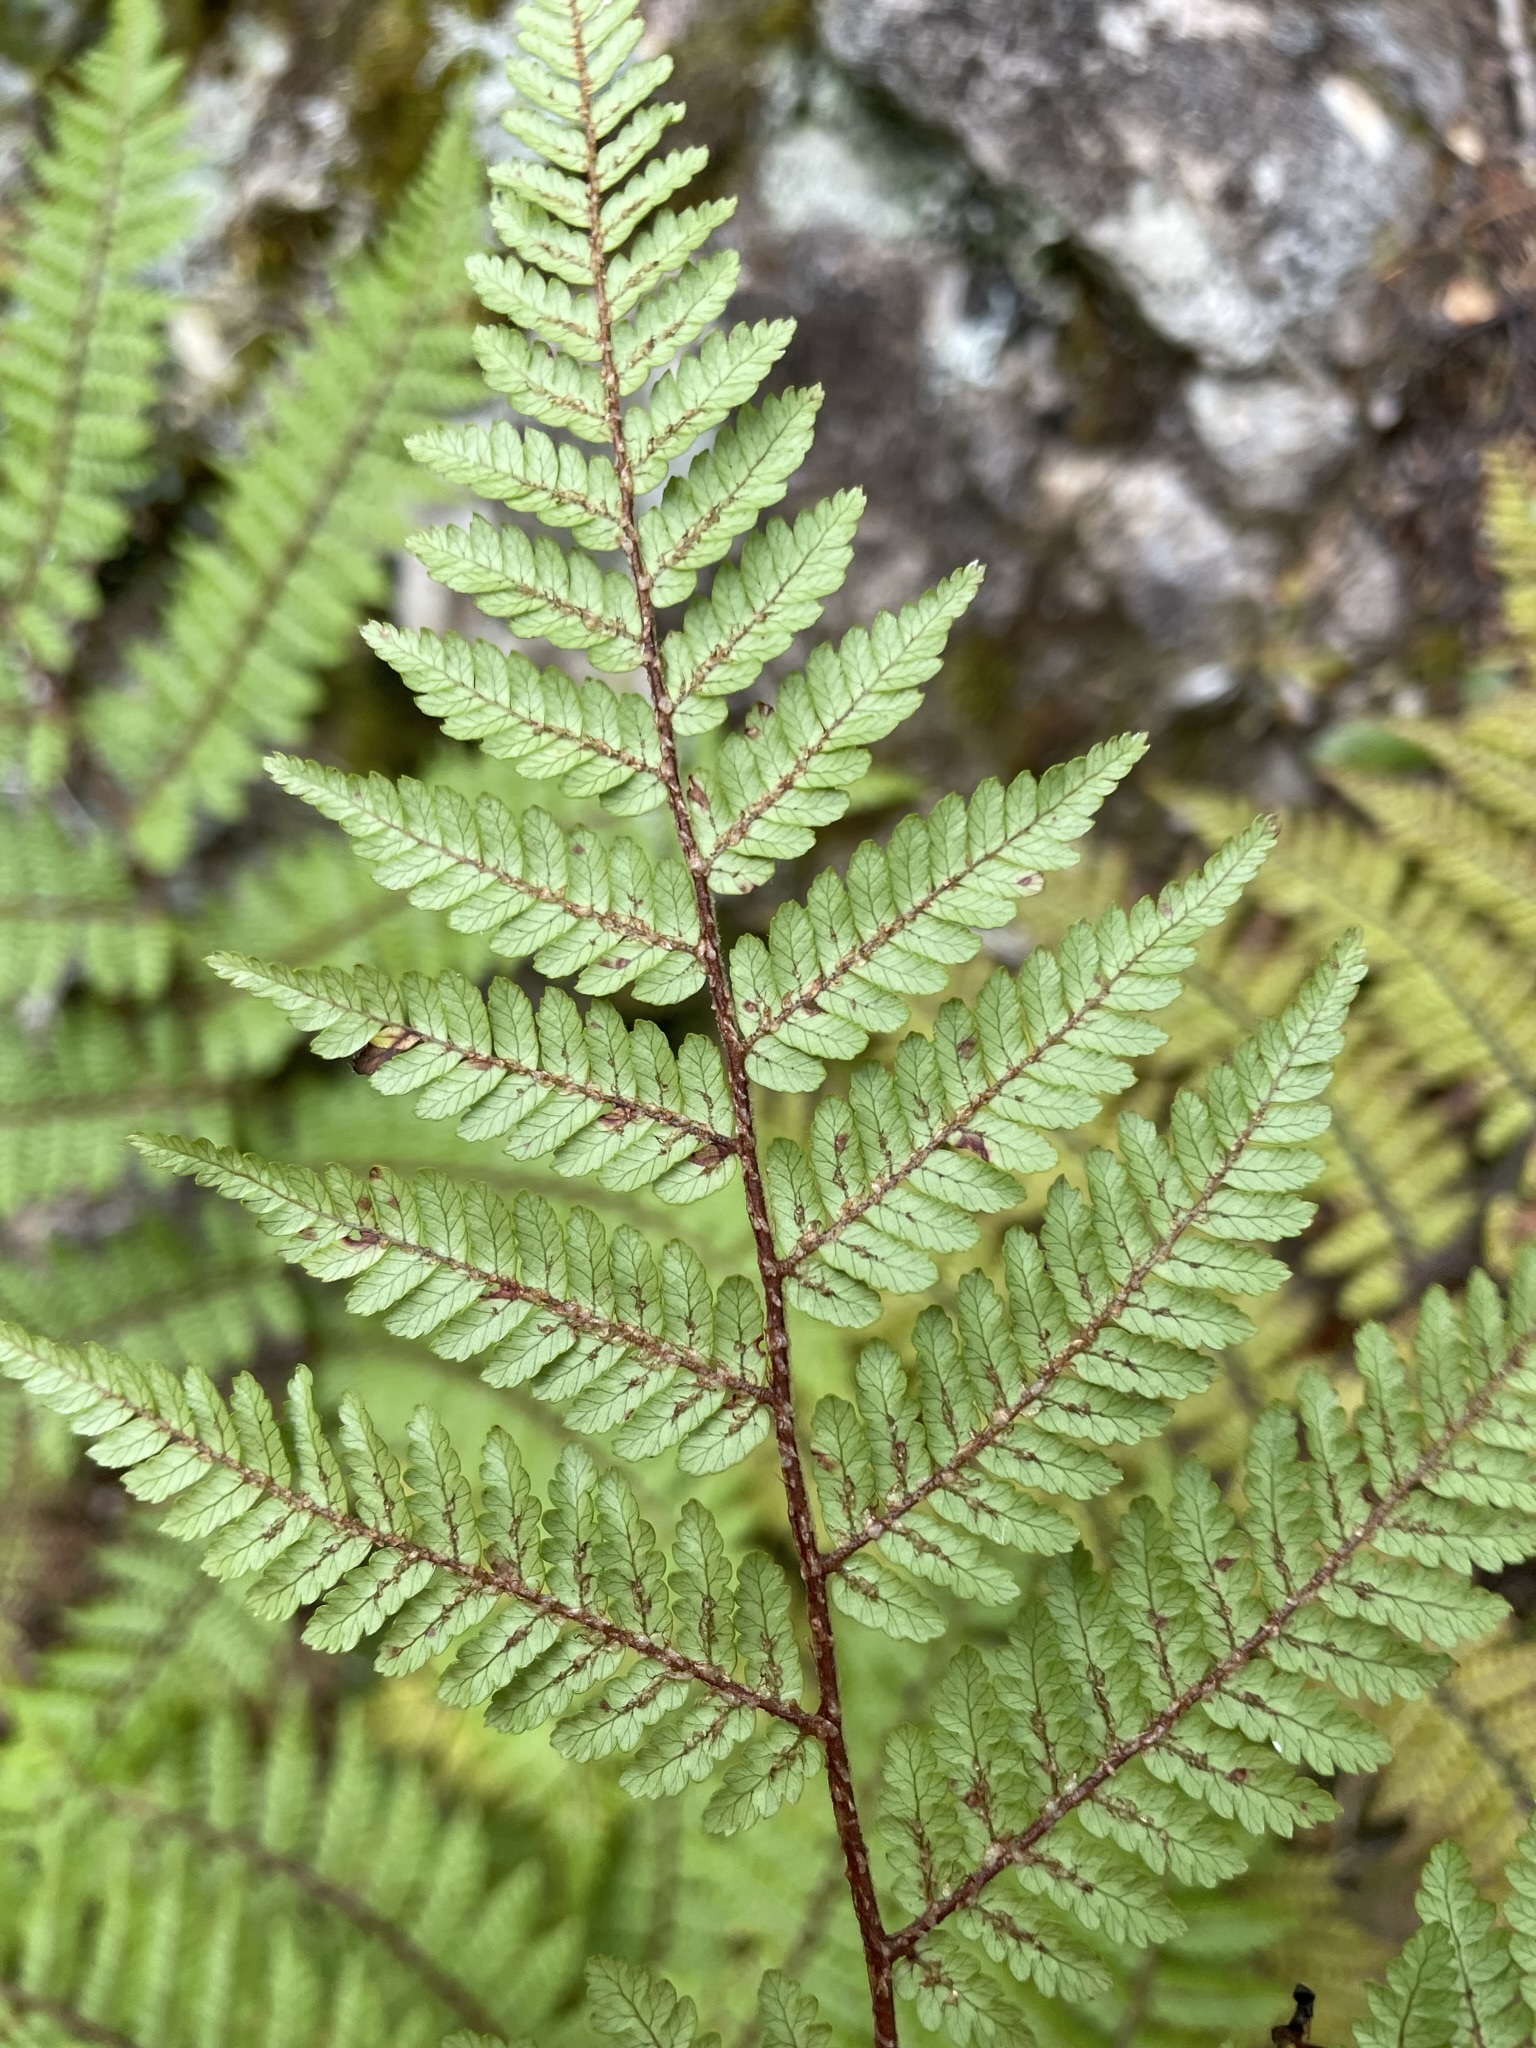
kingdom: Plantae
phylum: Tracheophyta
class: Polypodiopsida
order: Cyatheales
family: Cyatheaceae
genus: Alsophila
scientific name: Alsophila colensoi
